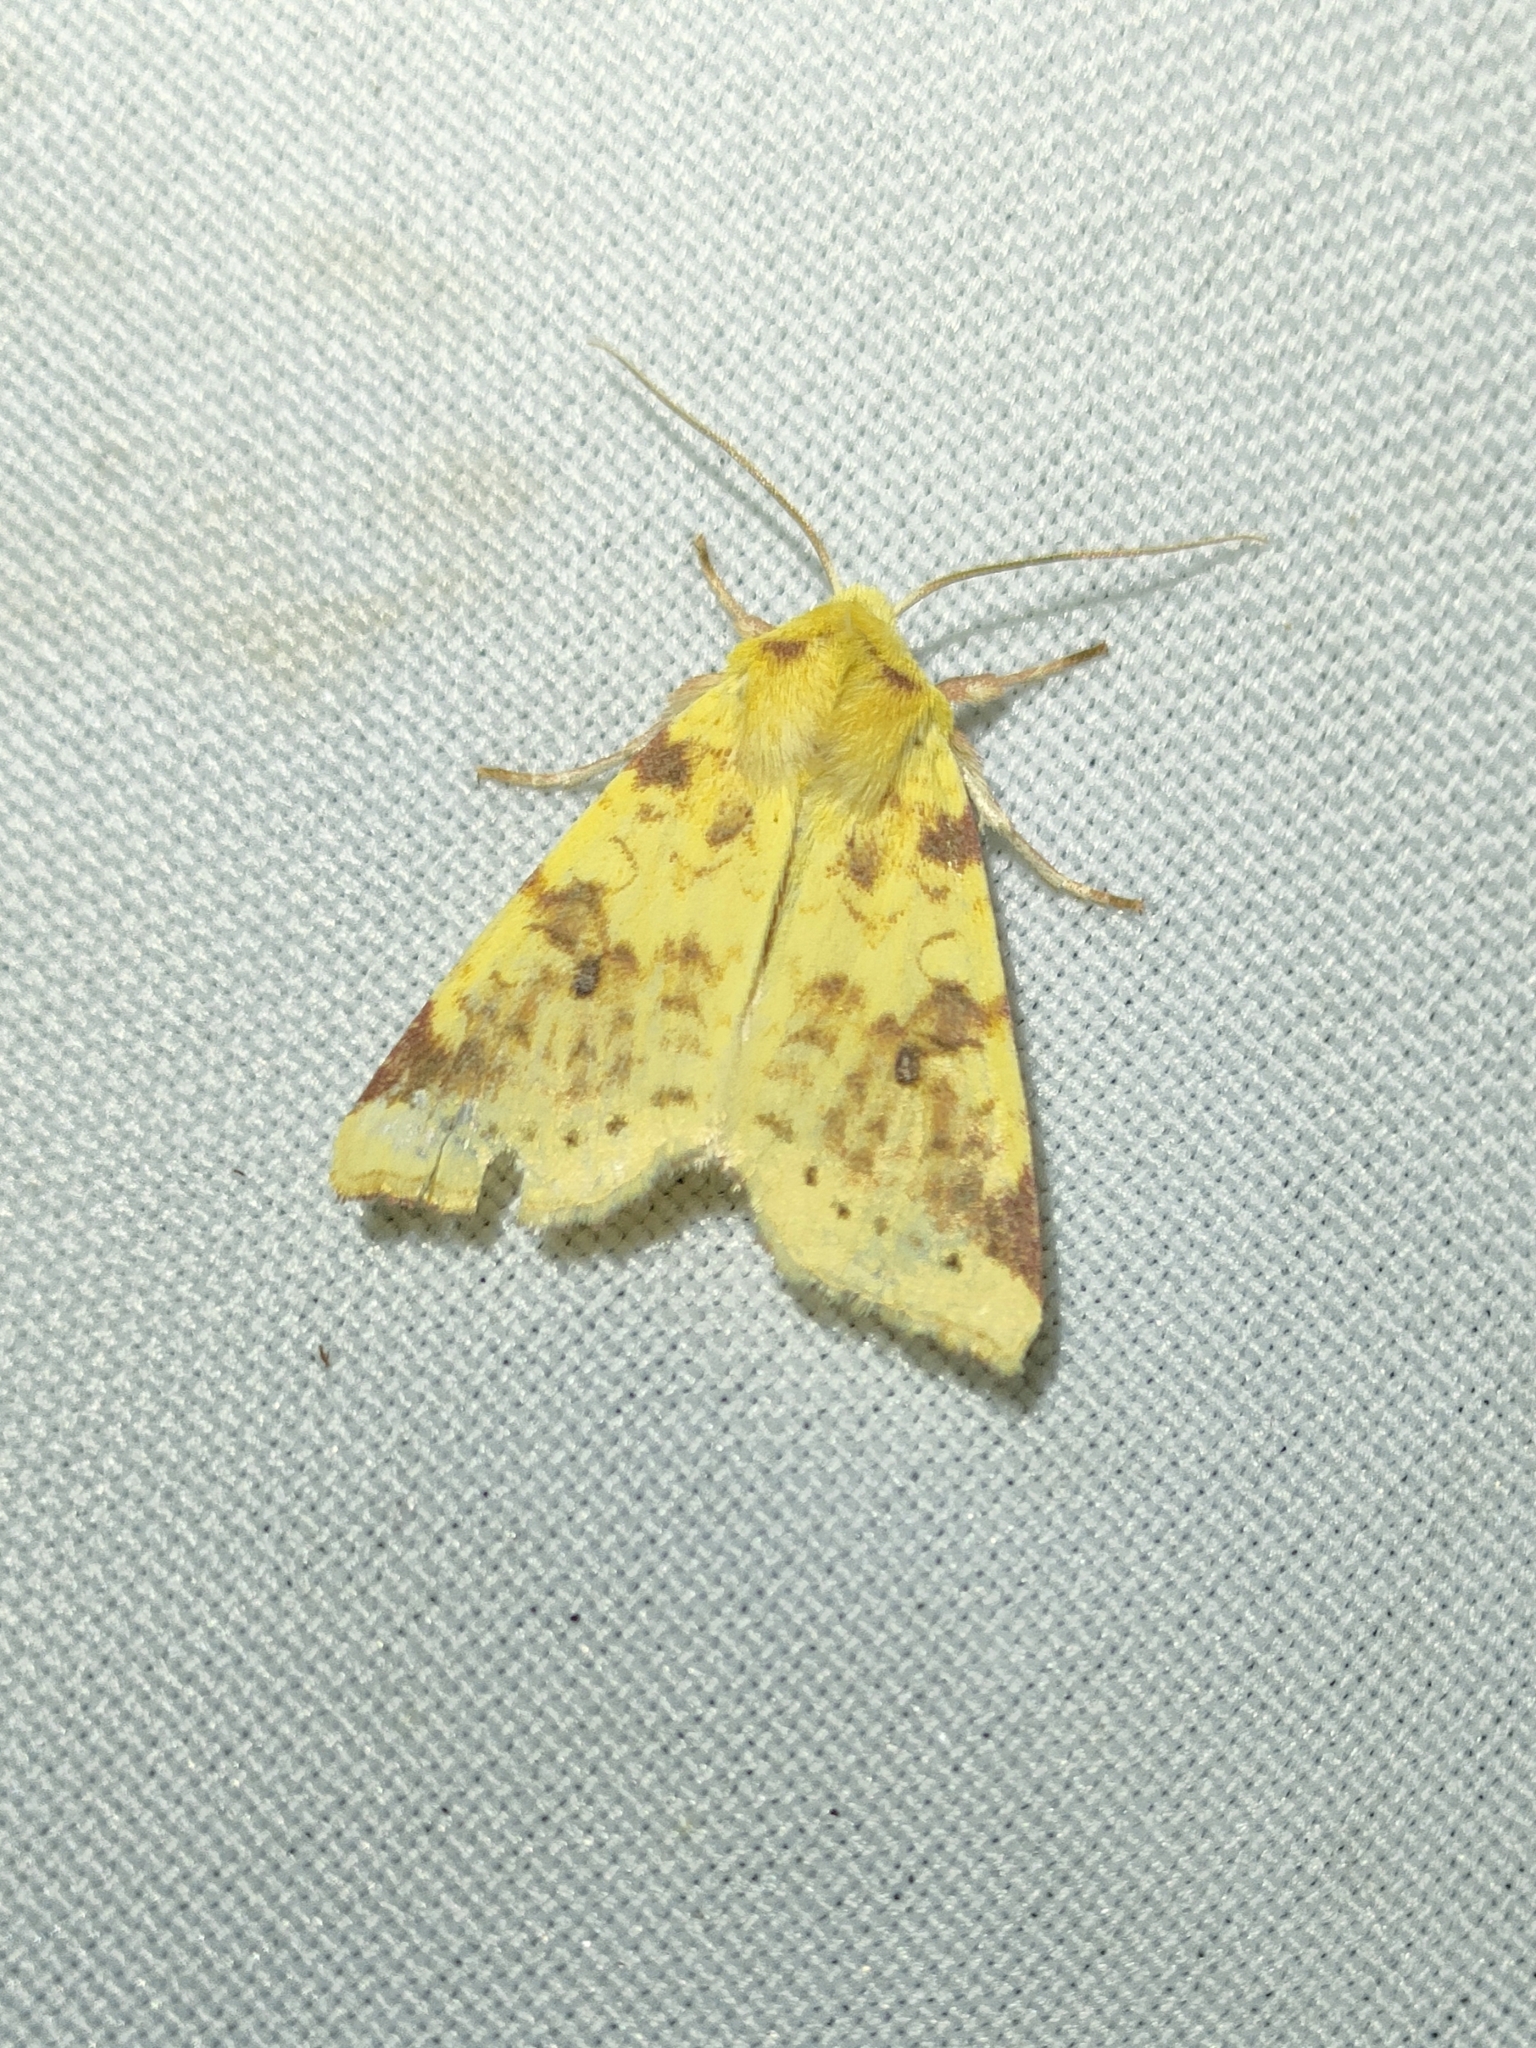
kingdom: Animalia
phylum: Arthropoda
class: Insecta
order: Lepidoptera
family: Noctuidae
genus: Xanthia
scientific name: Xanthia icteritia
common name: The sallow
